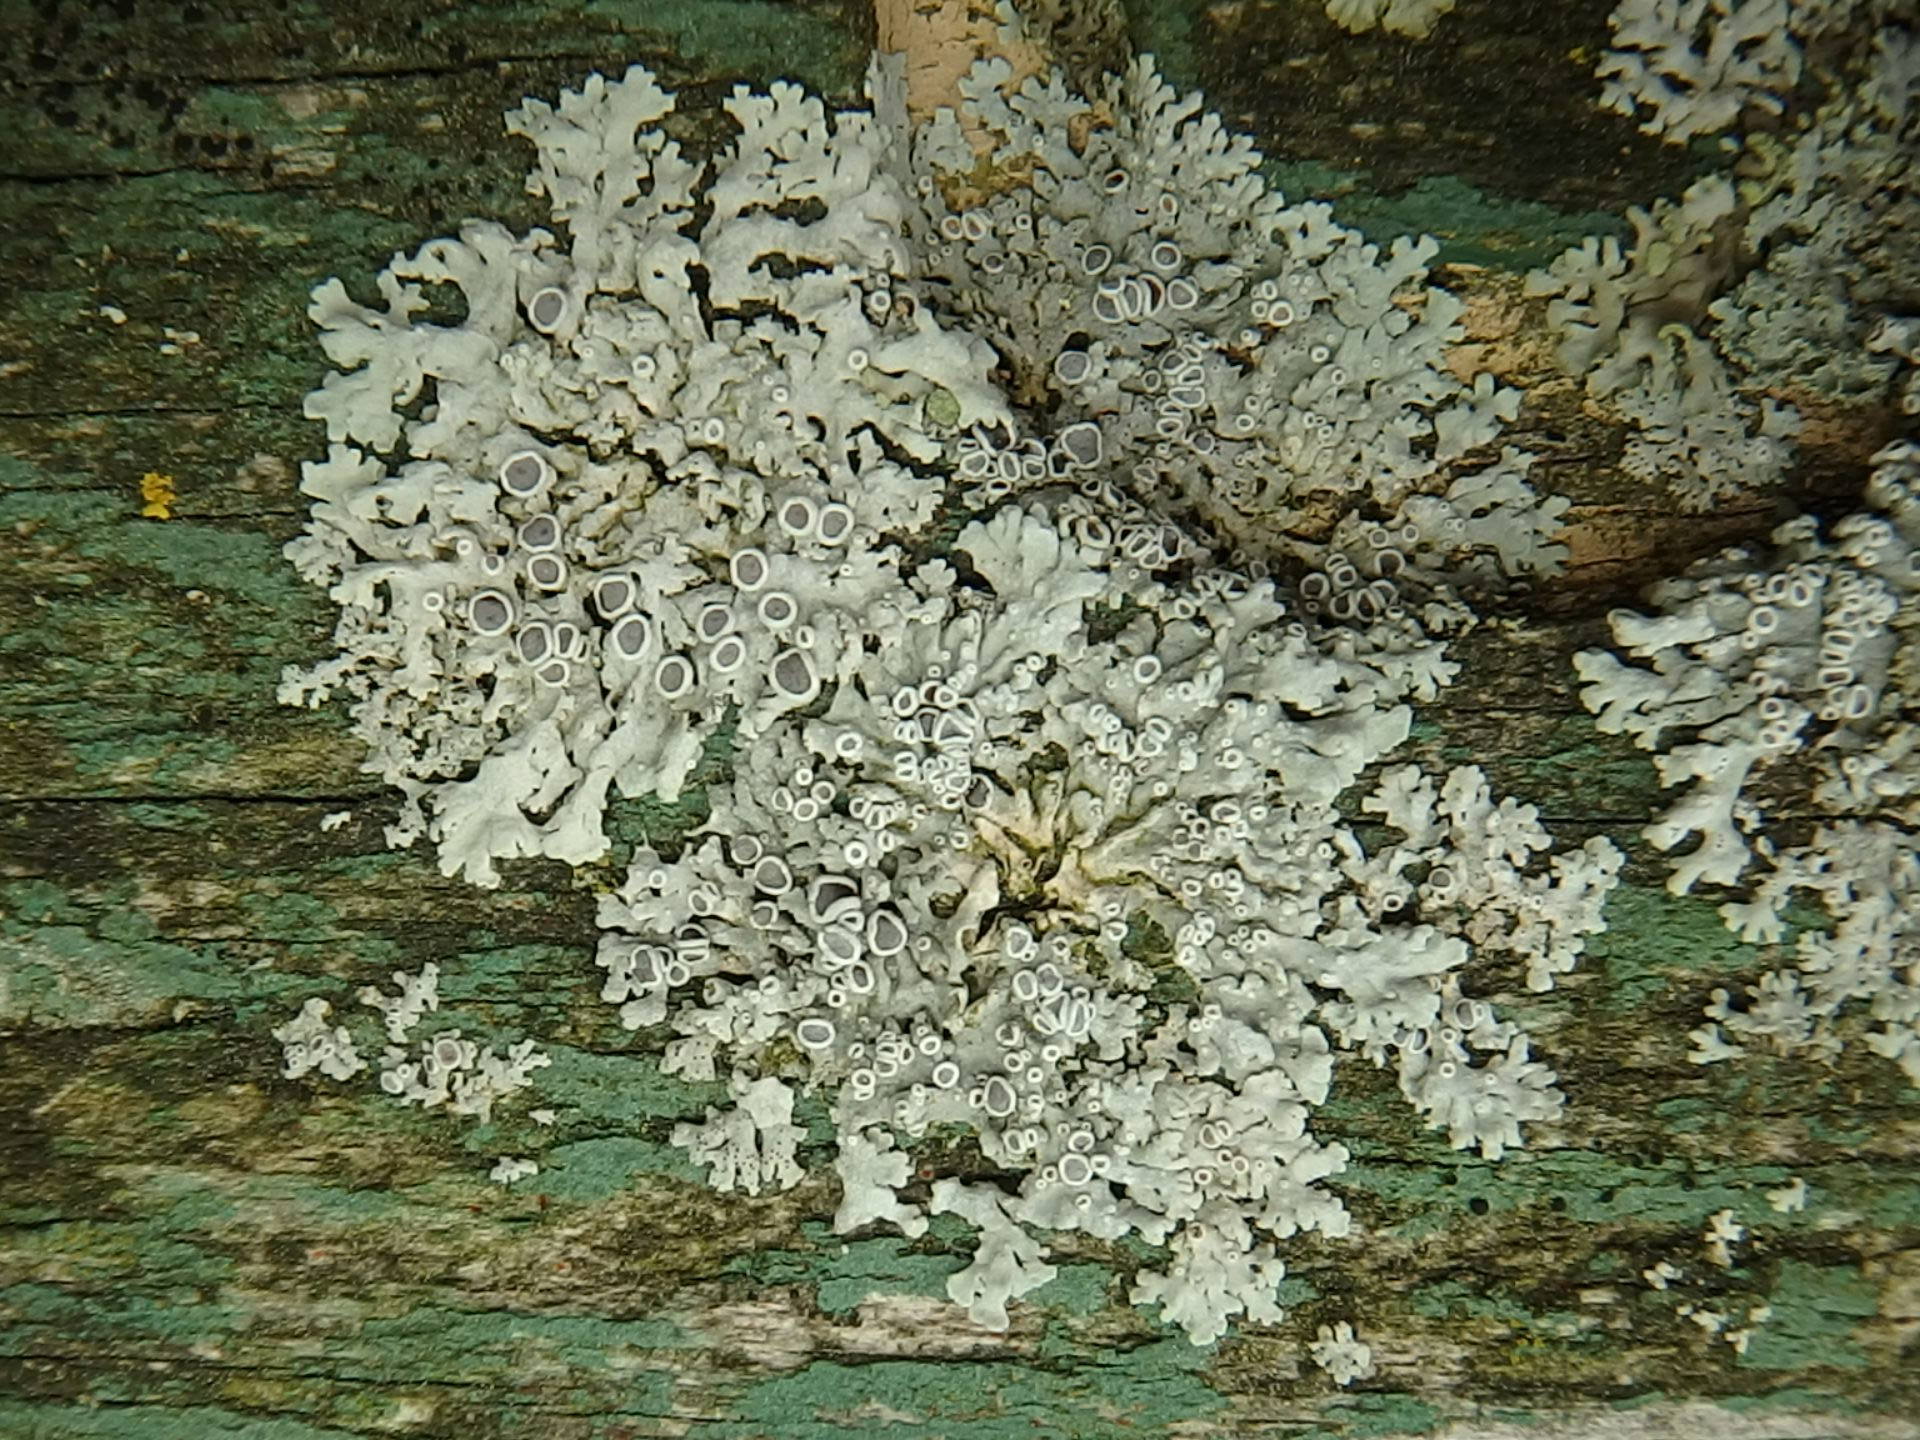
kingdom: Fungi
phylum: Ascomycota
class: Lecanoromycetes
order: Caliciales
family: Physciaceae
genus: Physcia
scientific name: Physcia stellaris
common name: Star rosette lichen
